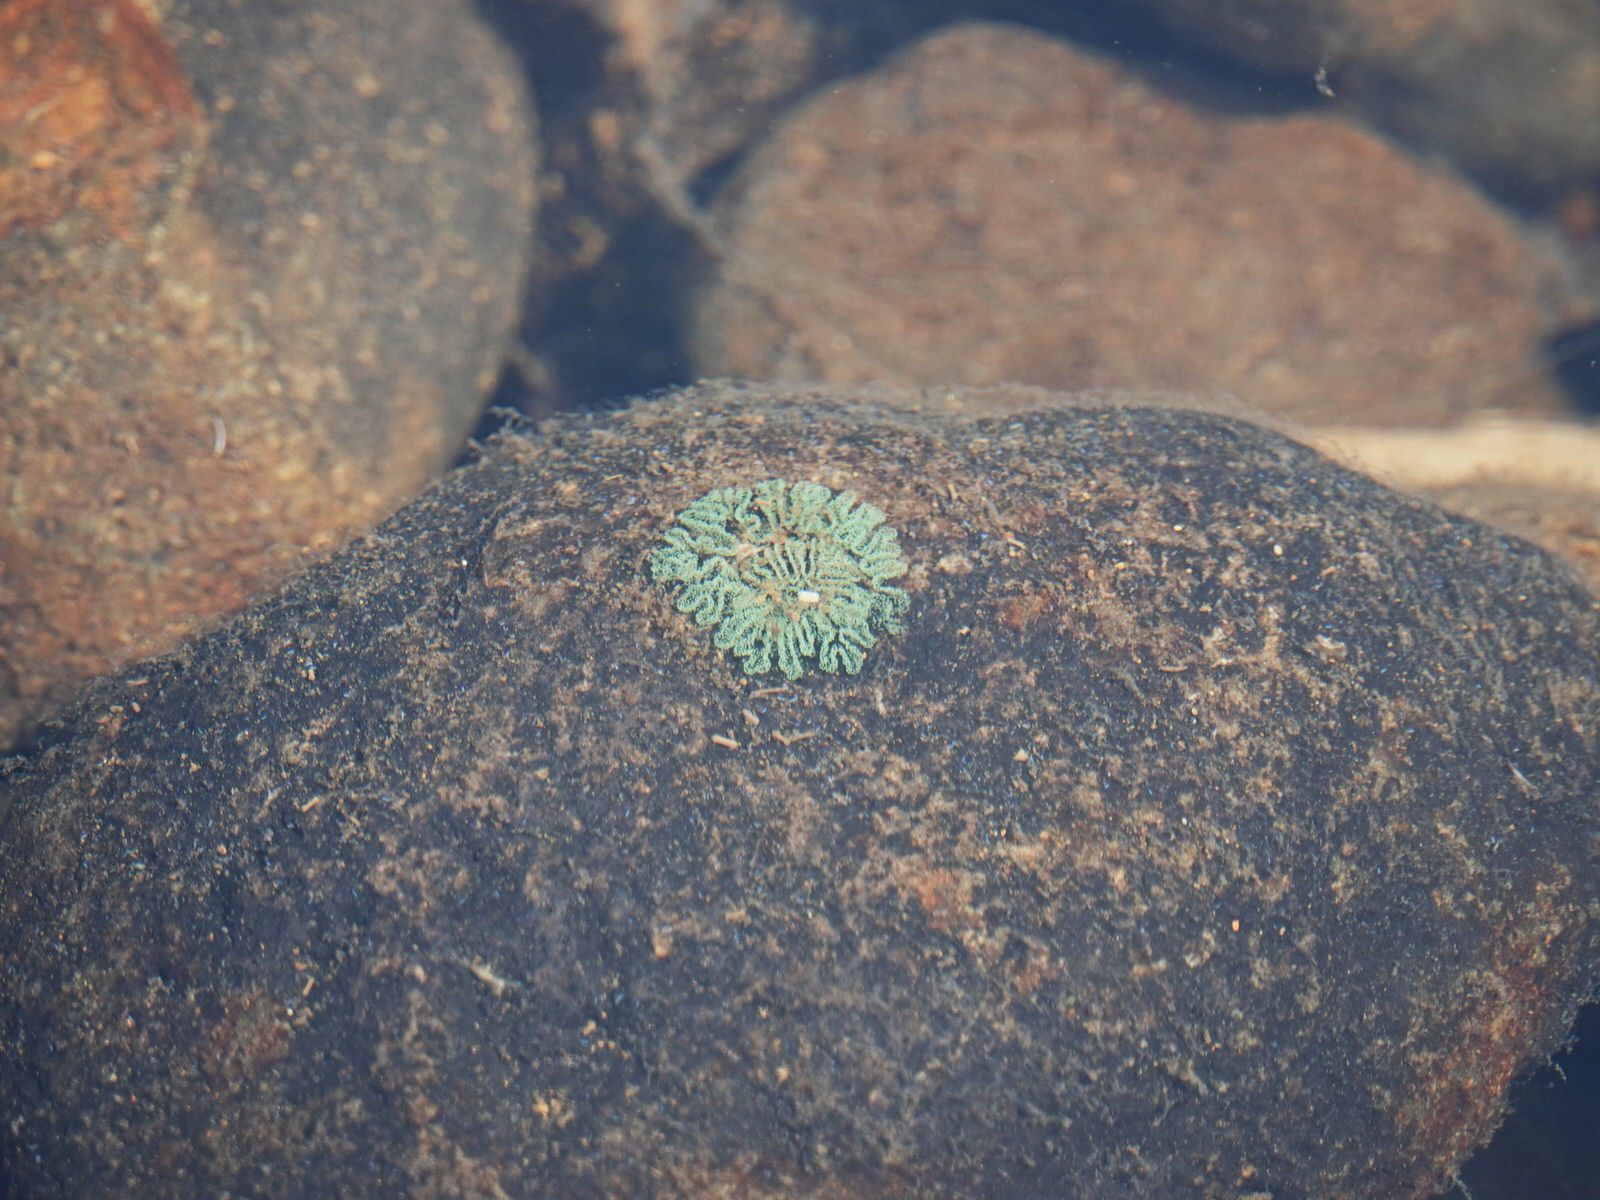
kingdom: Animalia
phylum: Mollusca
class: Gastropoda
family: Zemelanopsidae
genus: Zemelanopsis
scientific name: Zemelanopsis trifasciata
